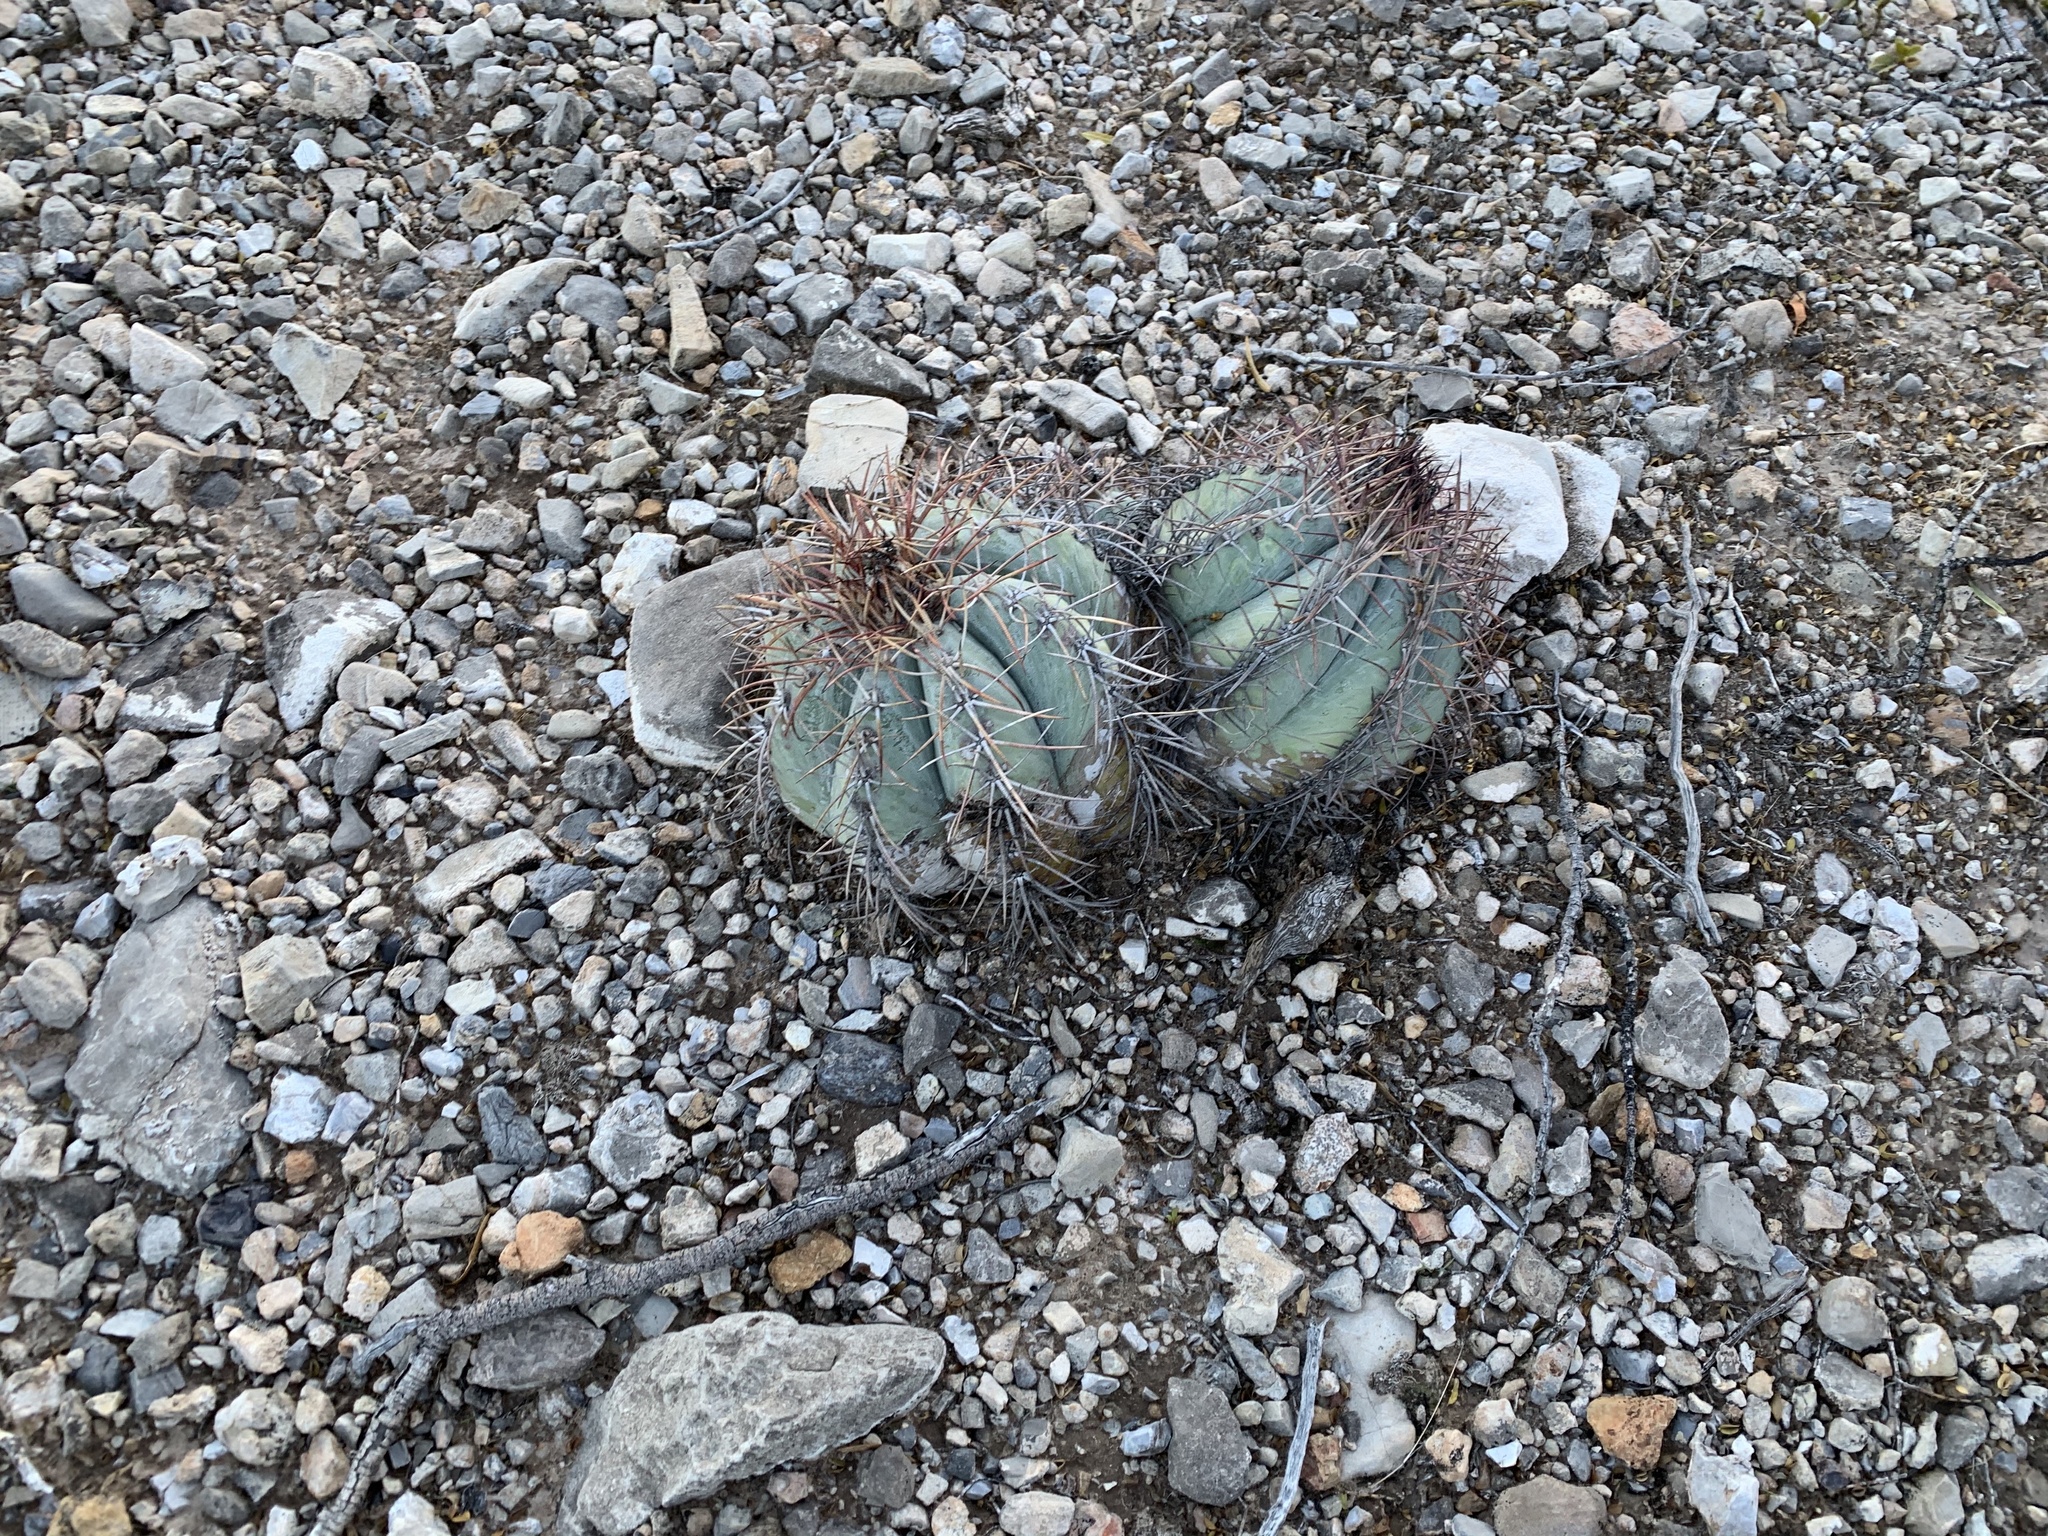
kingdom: Plantae
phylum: Tracheophyta
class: Magnoliopsida
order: Caryophyllales
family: Cactaceae
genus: Echinocactus
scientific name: Echinocactus horizonthalonius
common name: Devilshead
